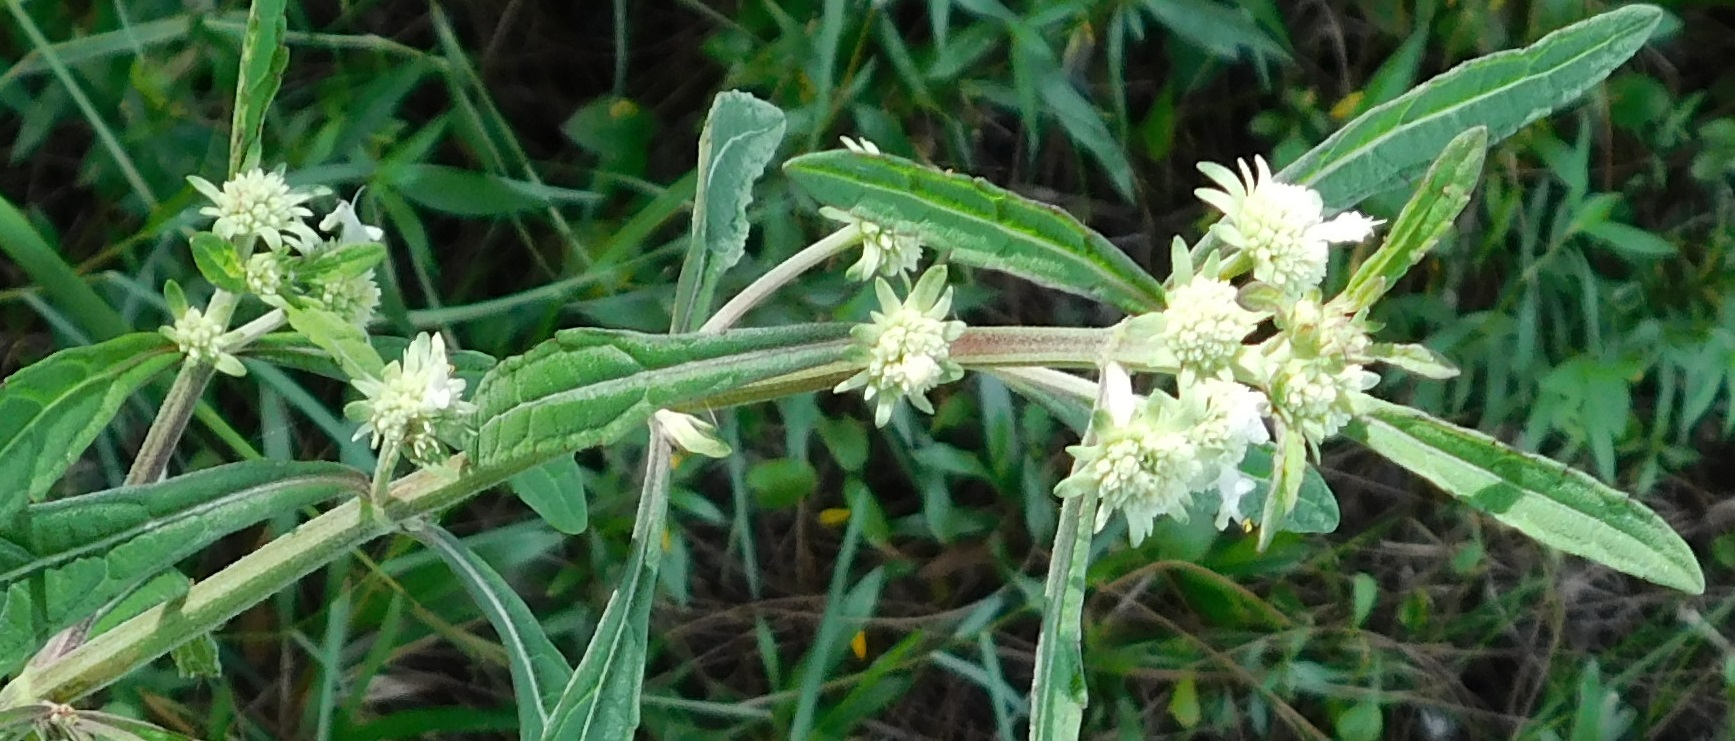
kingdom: Plantae
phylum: Tracheophyta
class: Magnoliopsida
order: Lamiales
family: Lamiaceae
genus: Hyptis
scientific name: Hyptis alata
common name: Cluster bush-mint
